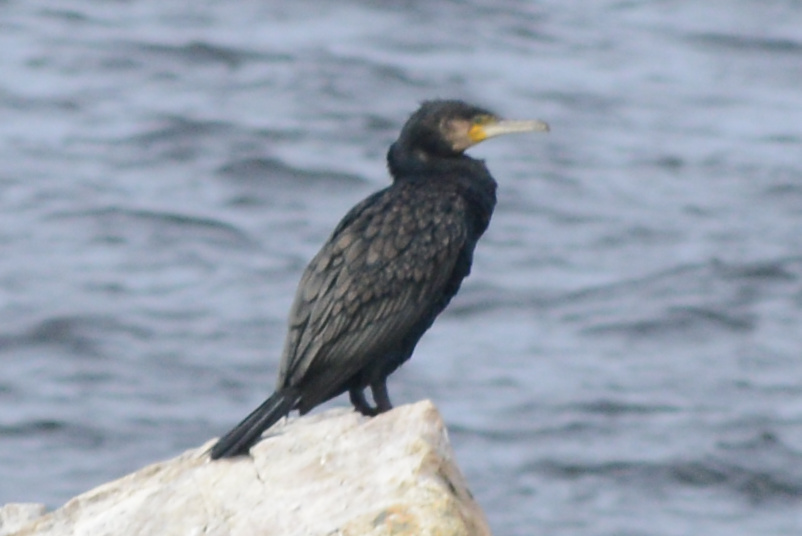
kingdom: Animalia
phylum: Chordata
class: Aves
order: Suliformes
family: Phalacrocoracidae
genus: Phalacrocorax
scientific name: Phalacrocorax carbo
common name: Great cormorant
